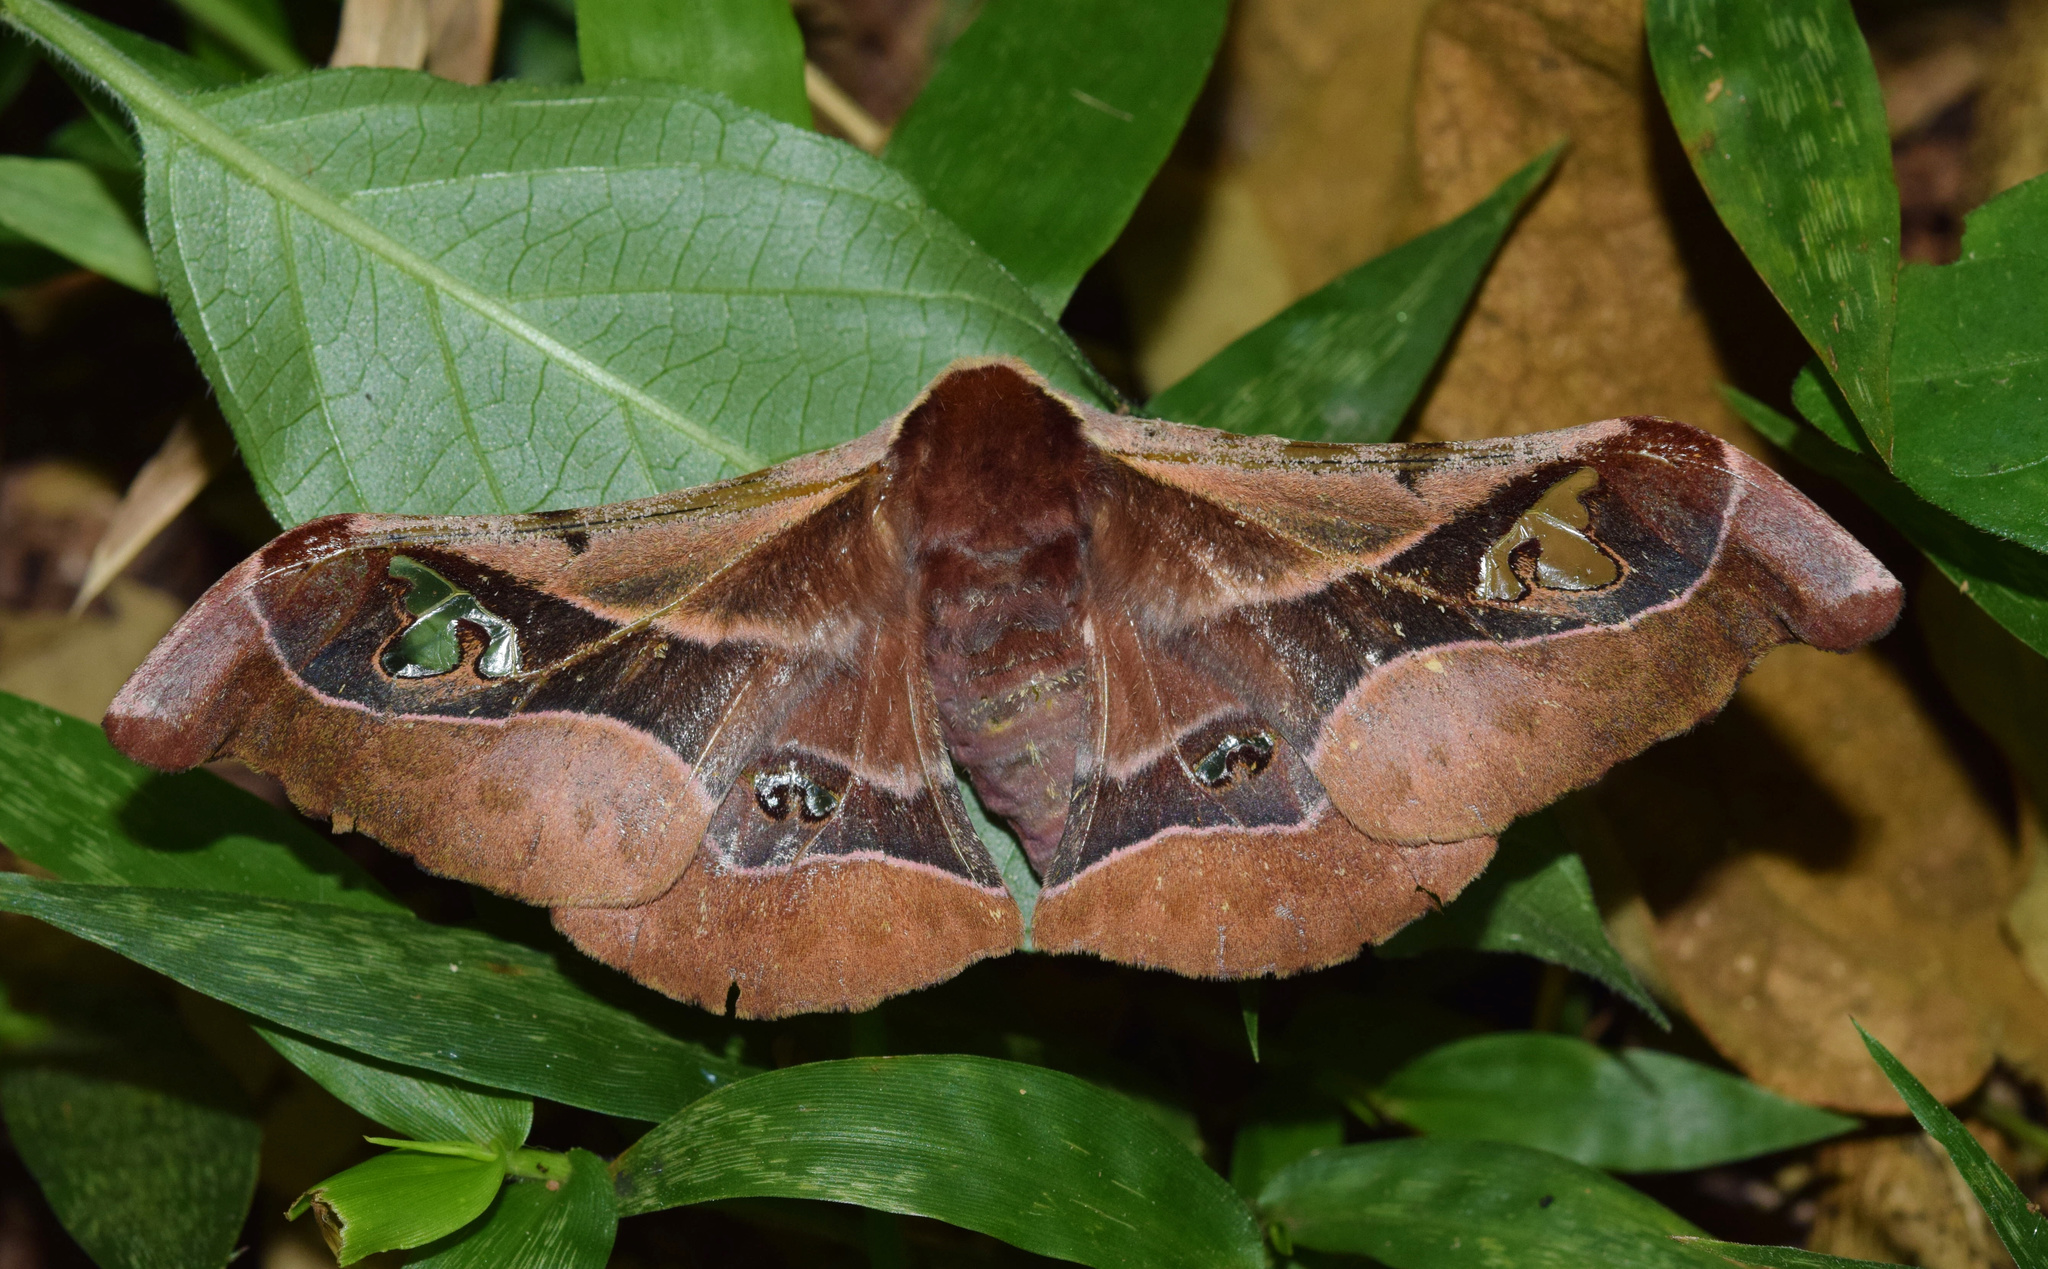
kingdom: Animalia
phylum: Arthropoda
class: Insecta
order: Lepidoptera
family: Saturniidae
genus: Holocerina
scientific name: Holocerina smilax
